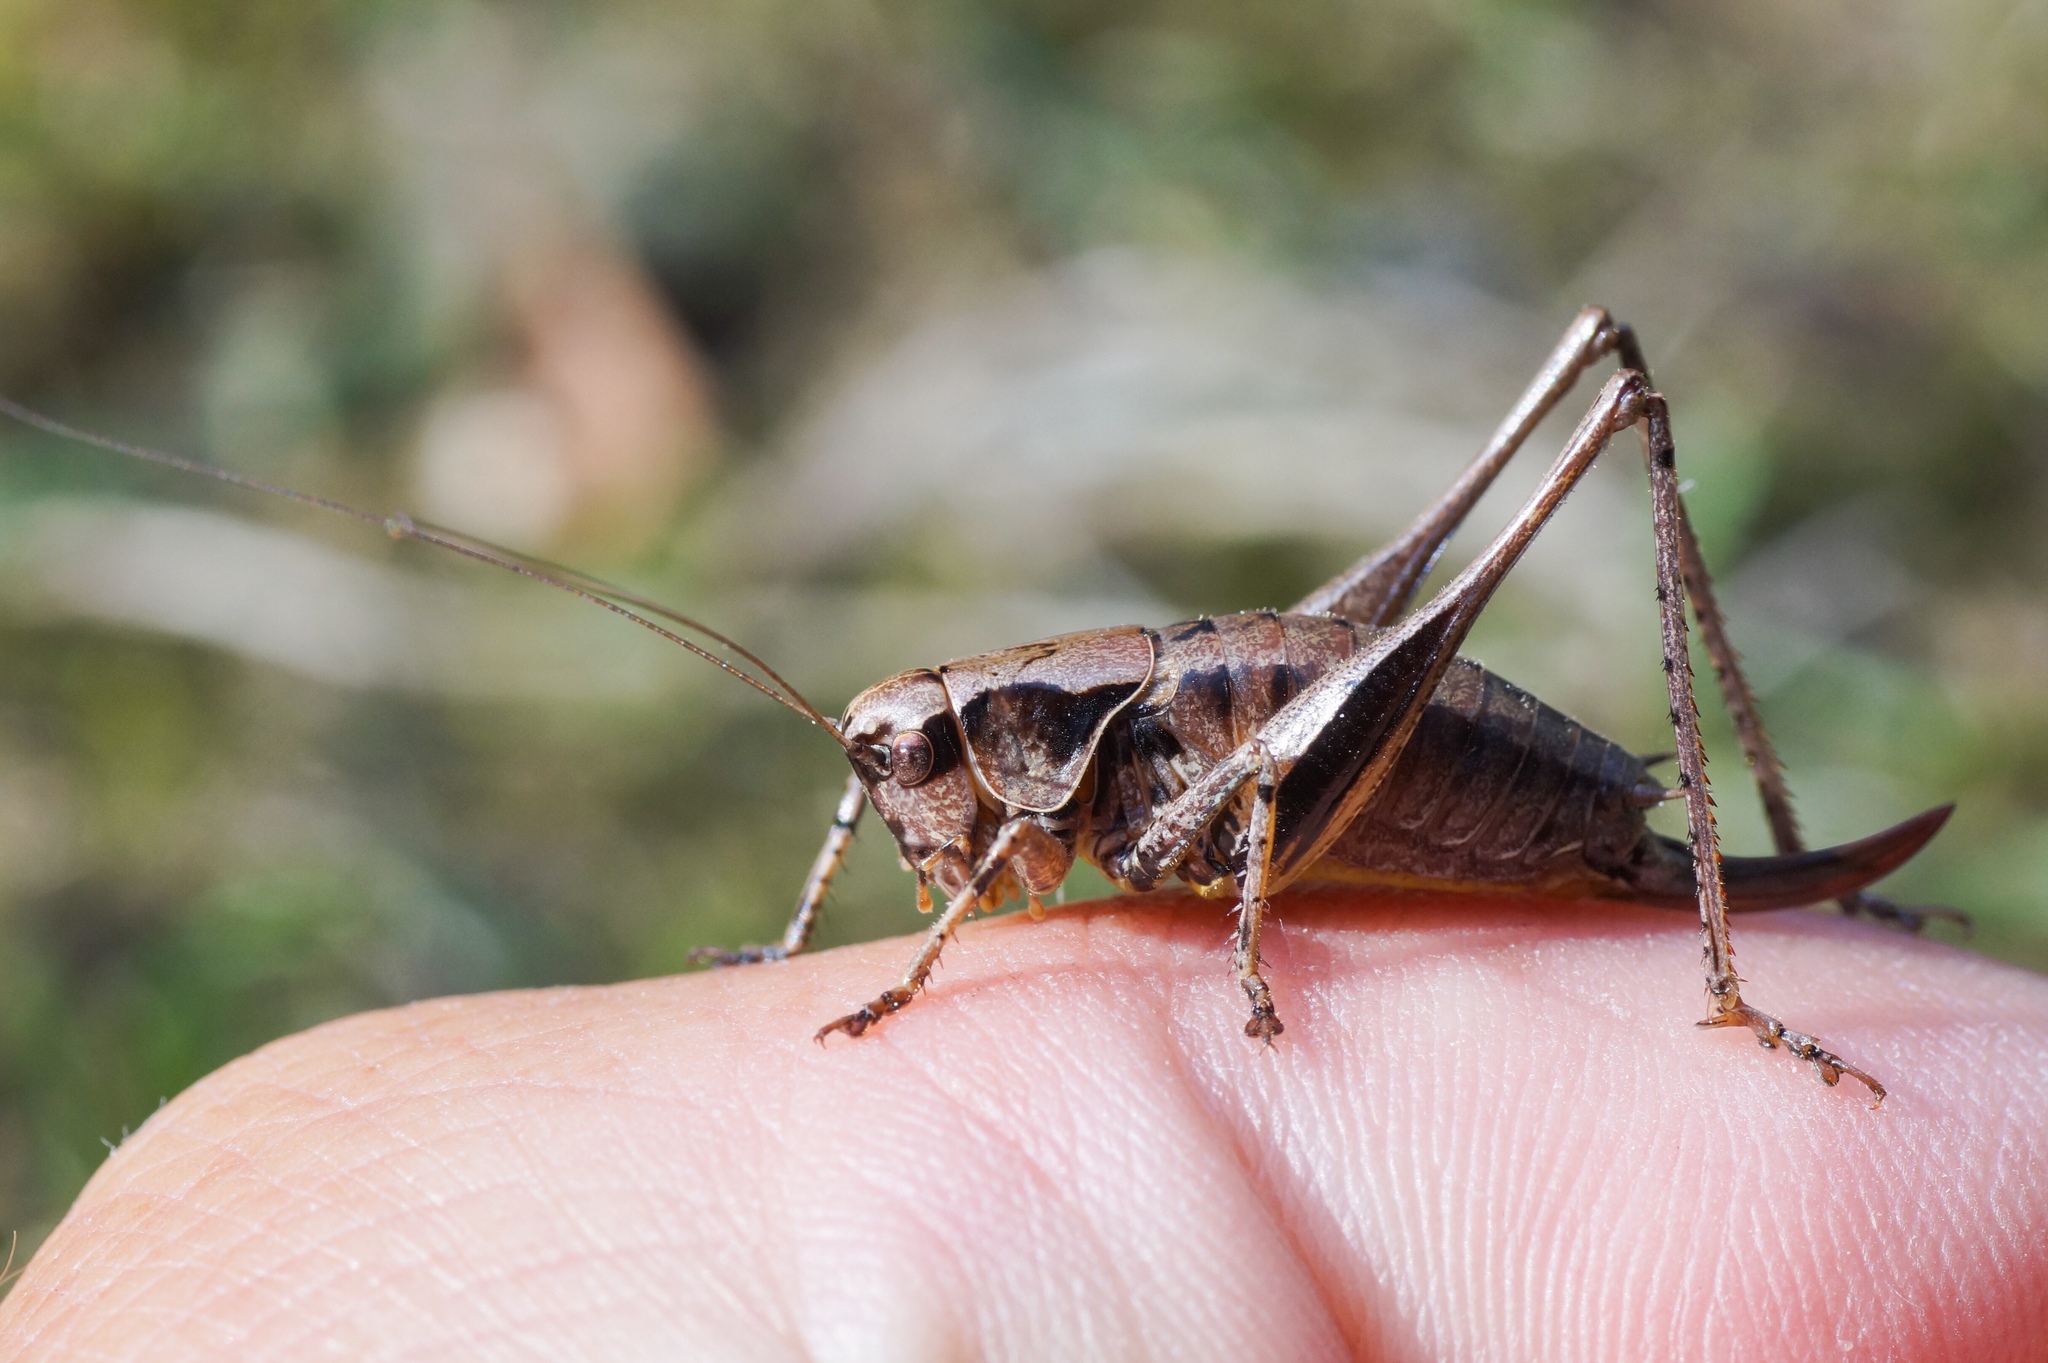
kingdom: Animalia
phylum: Arthropoda
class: Insecta
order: Orthoptera
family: Tettigoniidae
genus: Pholidoptera
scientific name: Pholidoptera griseoaptera
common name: Dark bush-cricket
